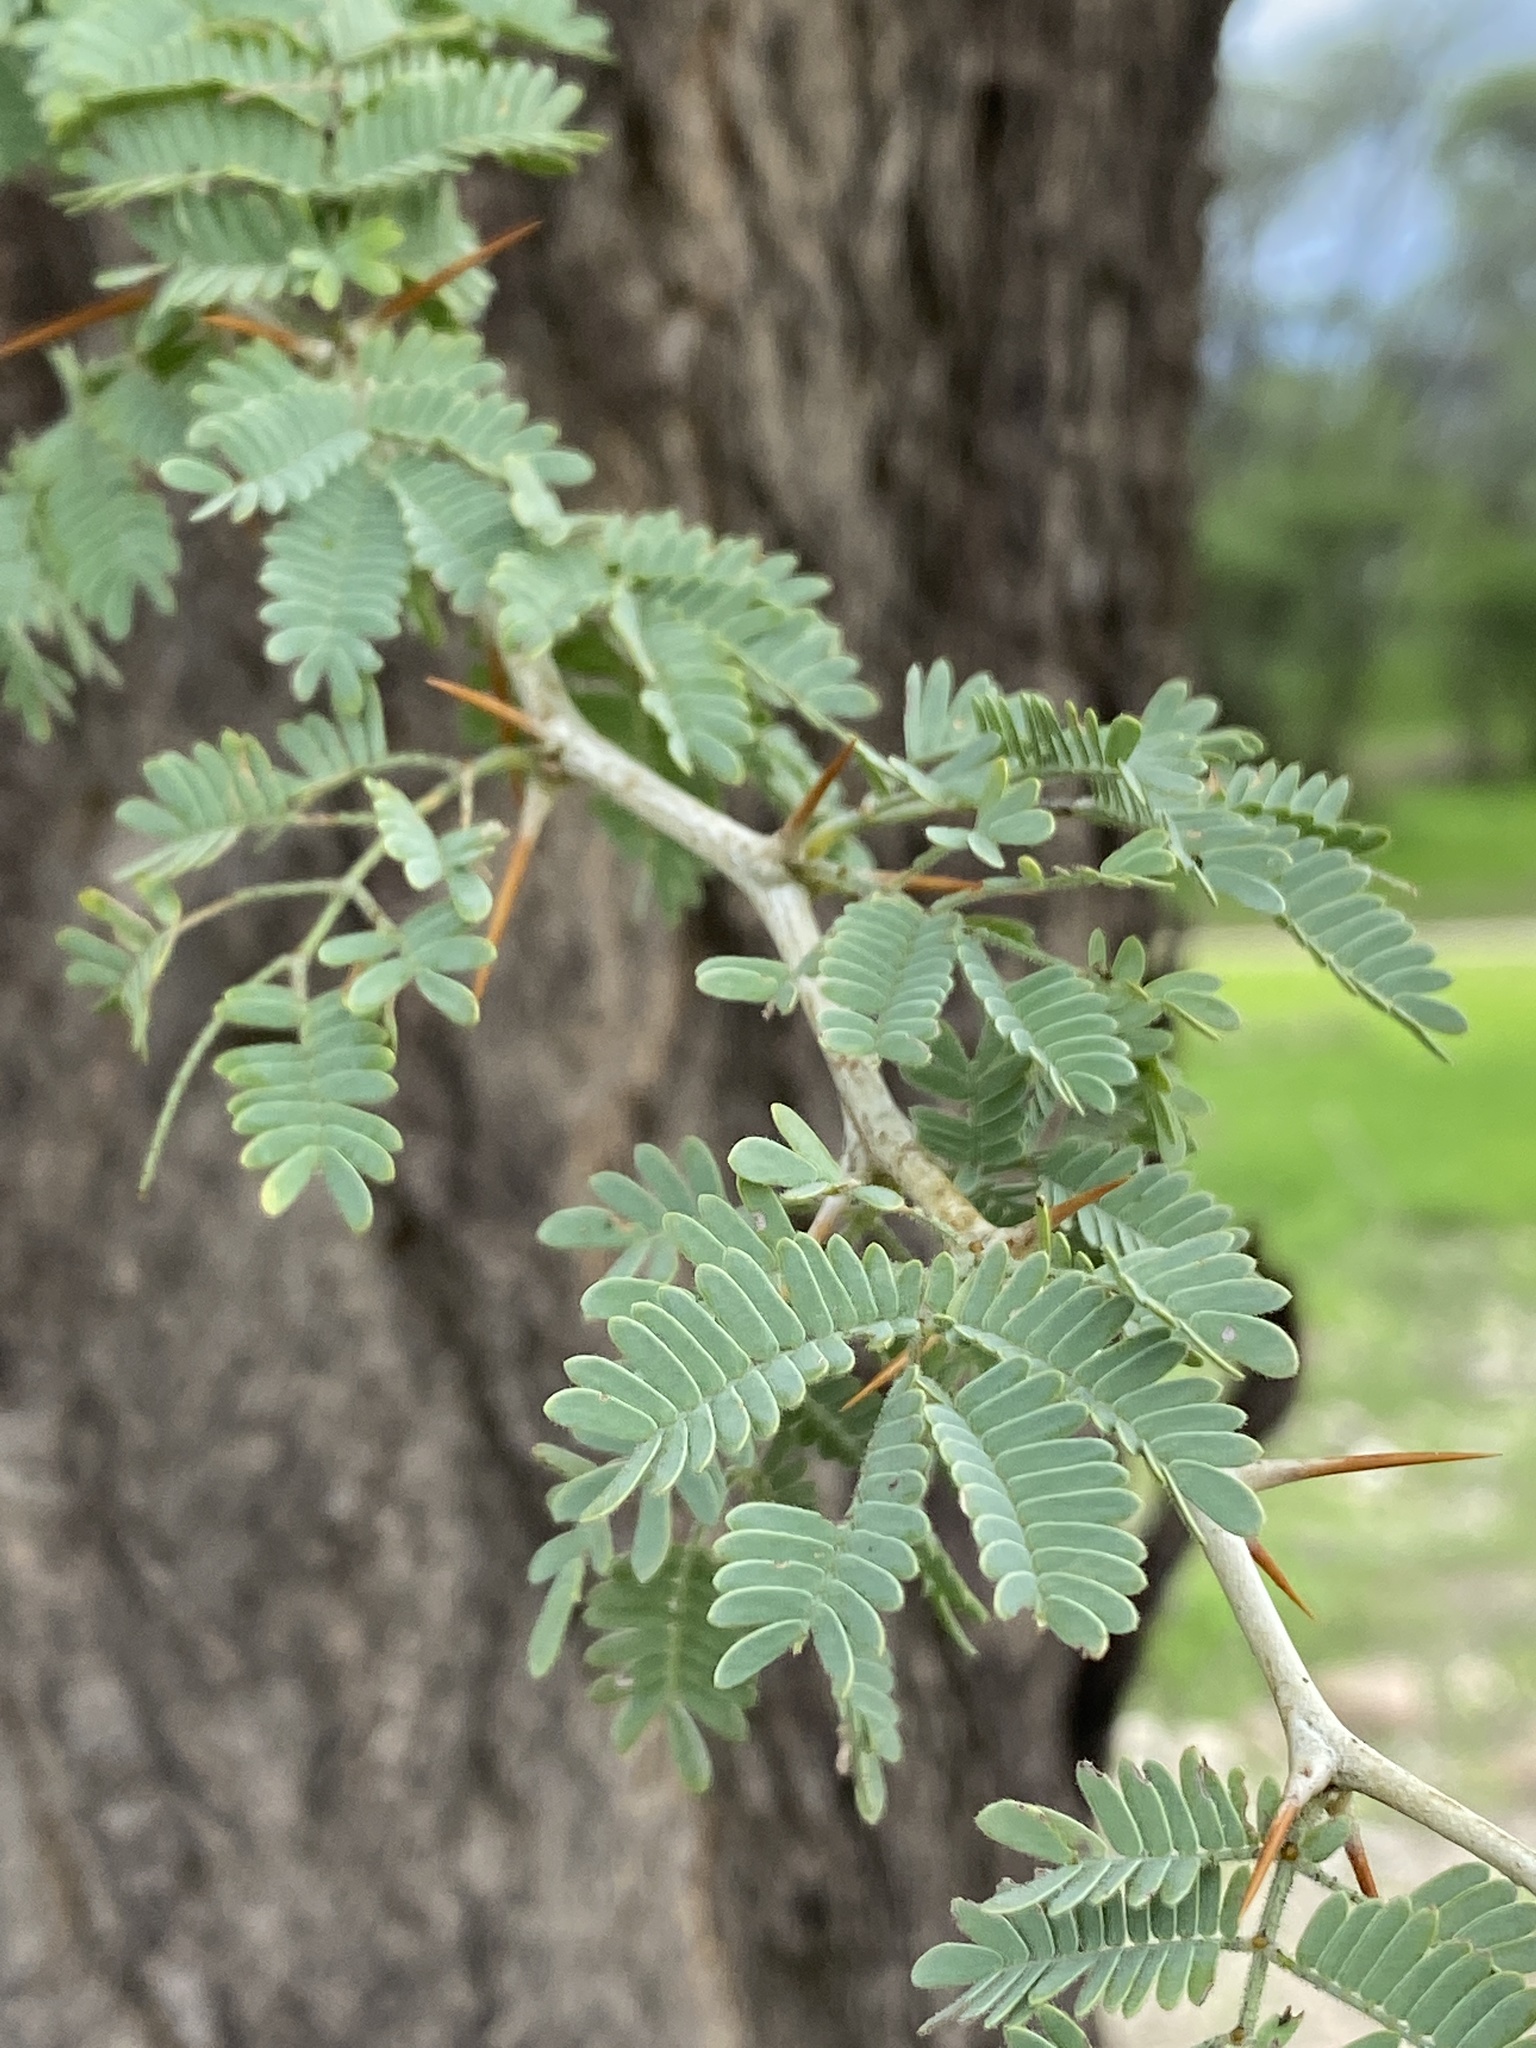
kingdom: Plantae
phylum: Tracheophyta
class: Magnoliopsida
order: Fabales
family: Fabaceae
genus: Faidherbia
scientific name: Faidherbia albida
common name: Anatree
